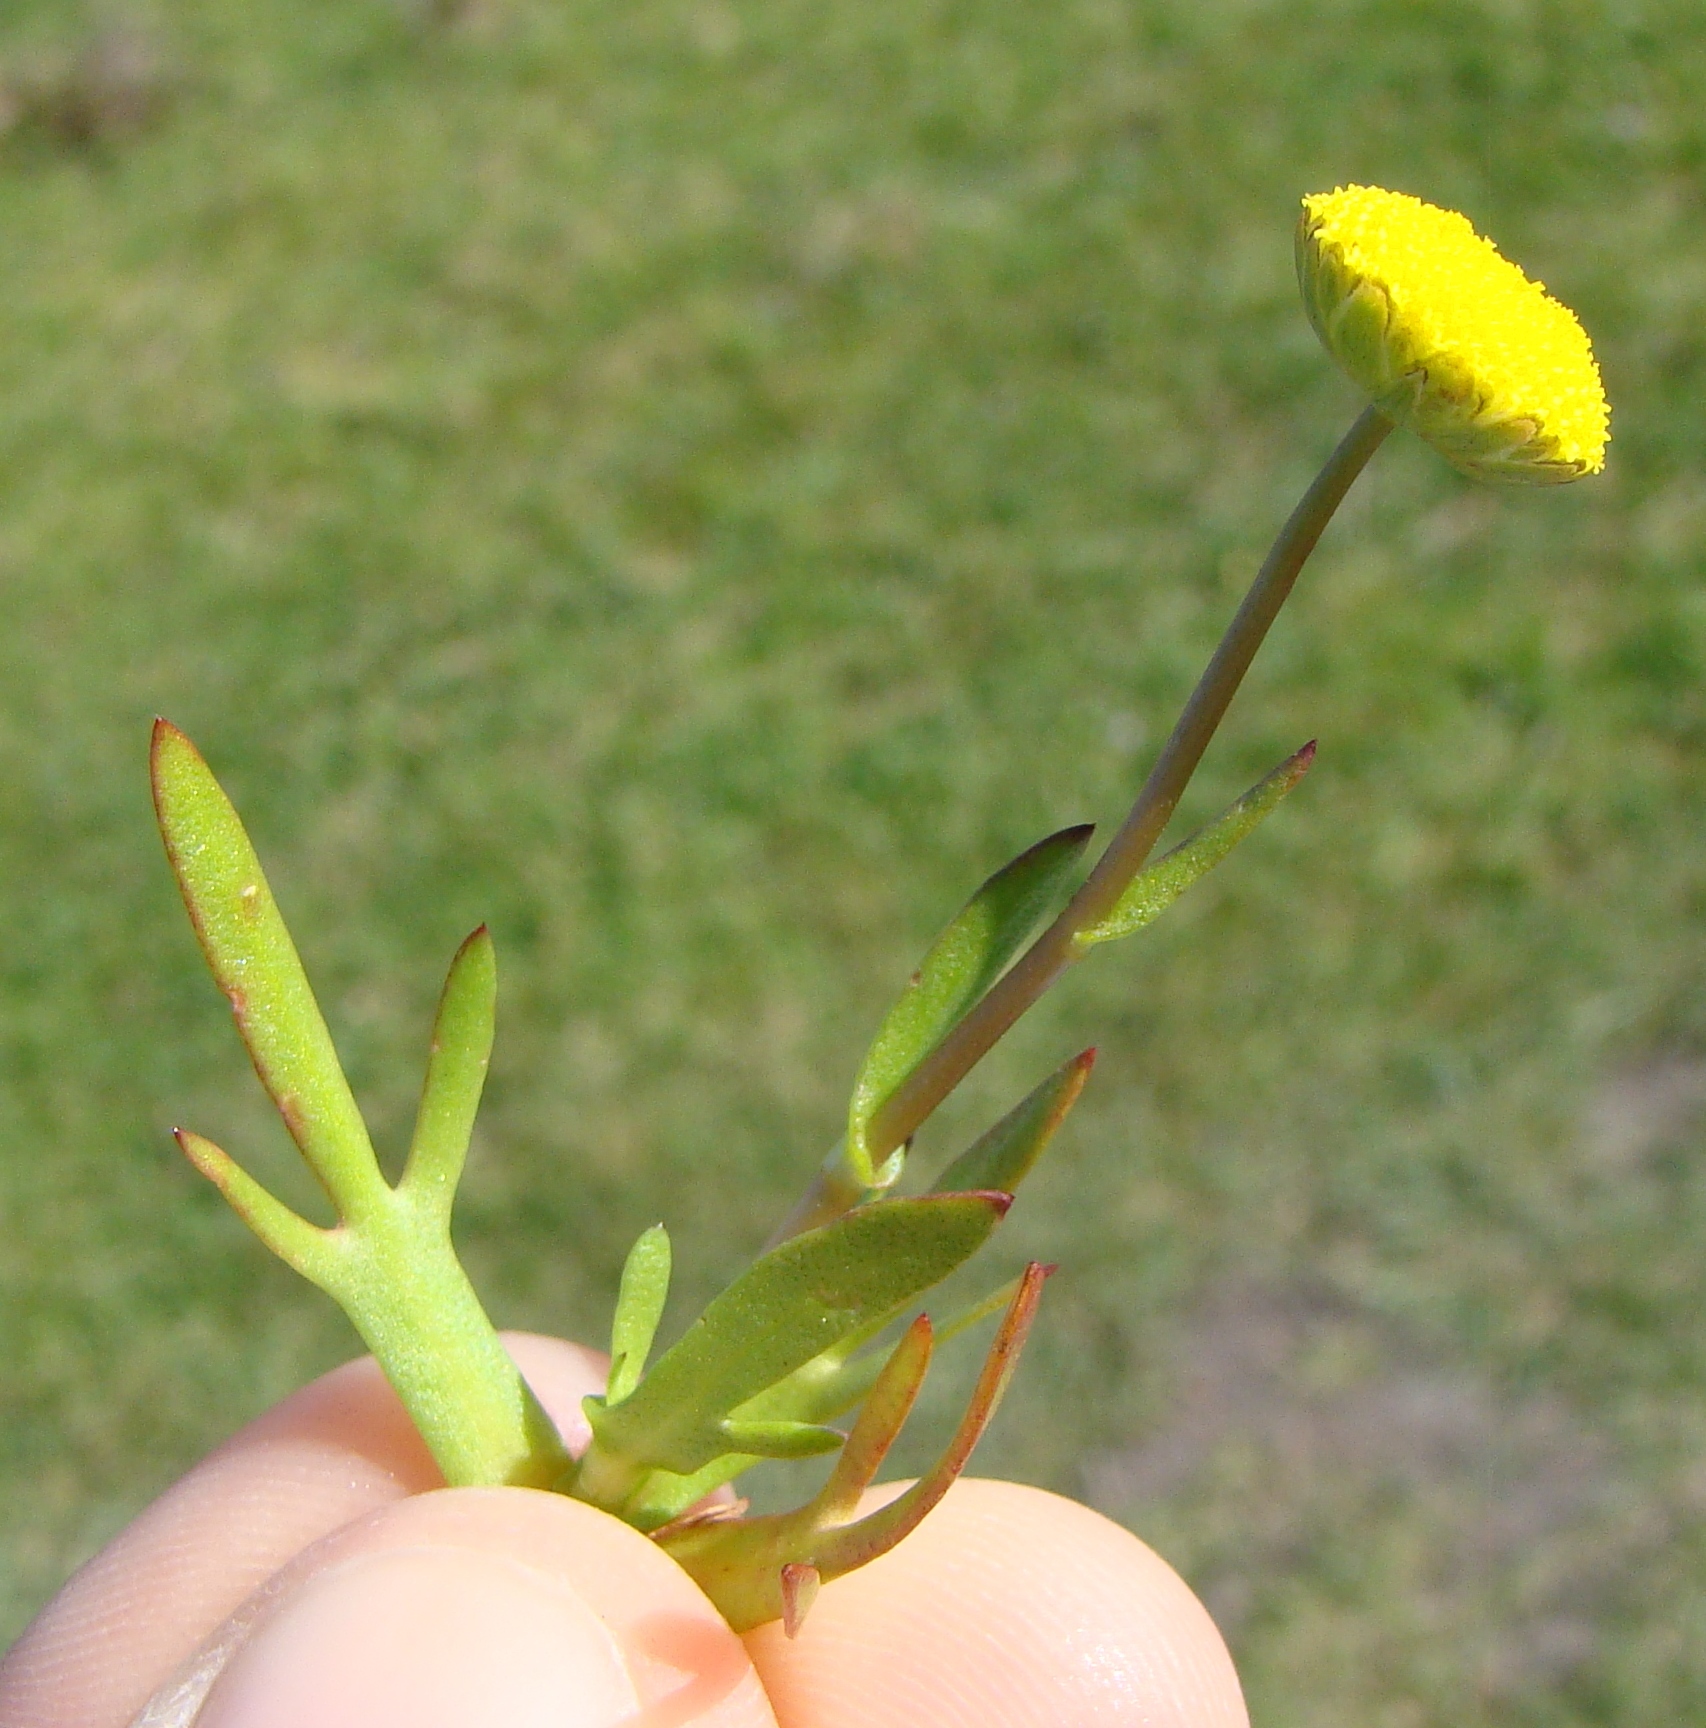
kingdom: Plantae
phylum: Tracheophyta
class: Magnoliopsida
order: Asterales
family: Asteraceae
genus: Cotula
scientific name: Cotula coronopifolia
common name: Buttonweed
